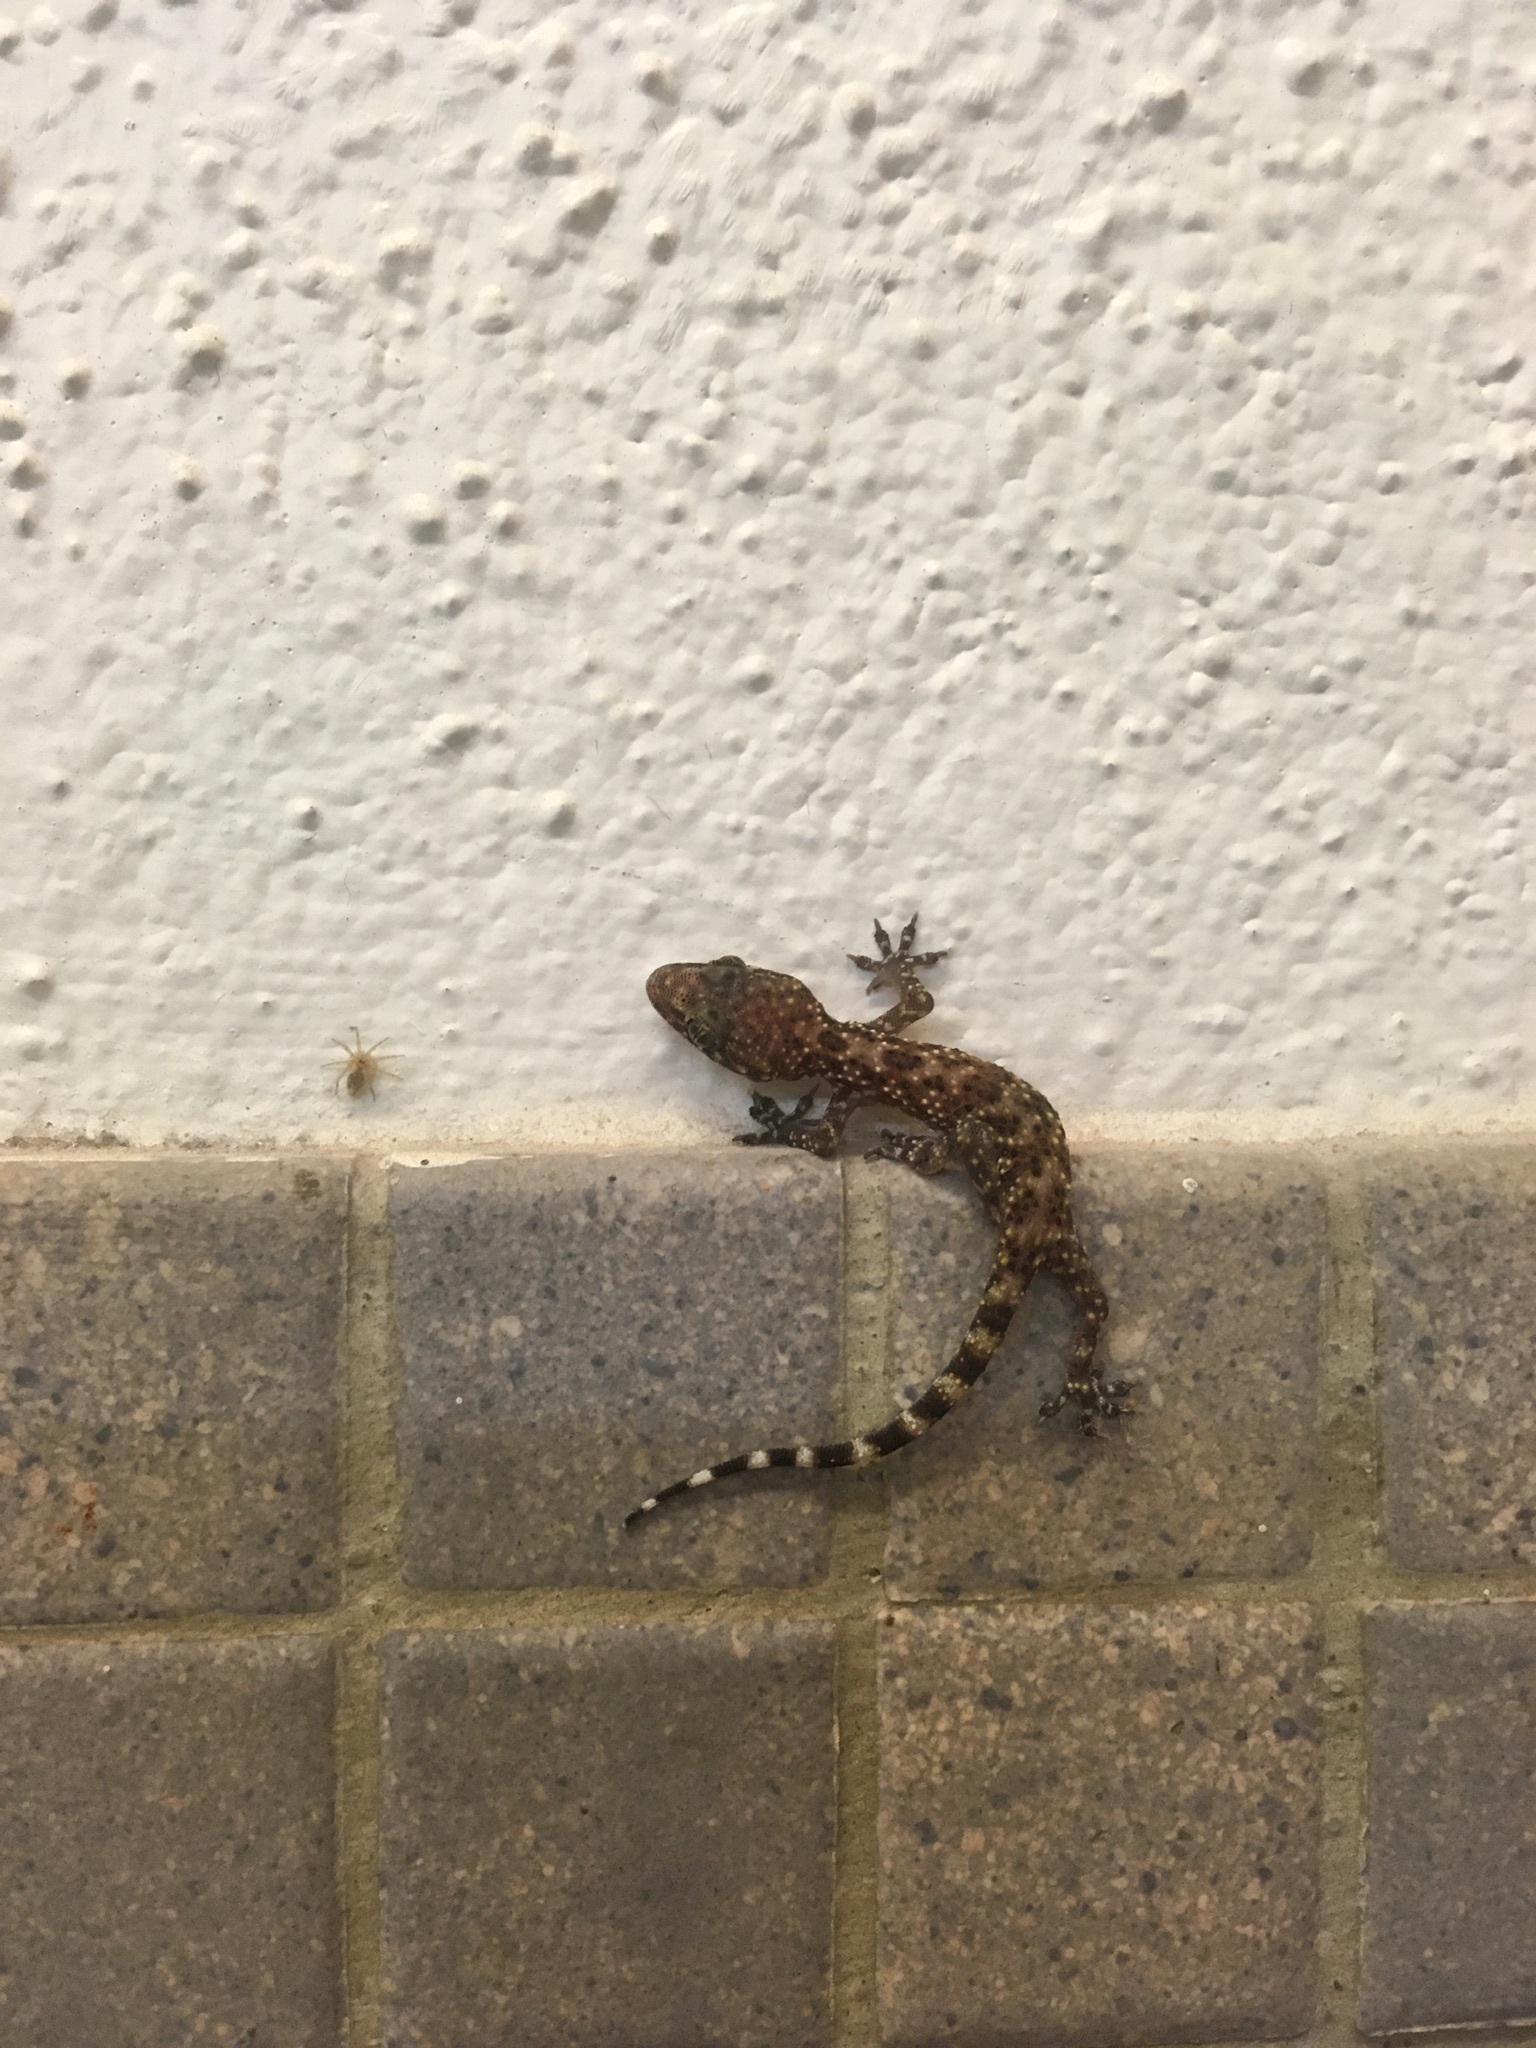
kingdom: Animalia
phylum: Chordata
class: Squamata
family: Gekkonidae
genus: Hemidactylus
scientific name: Hemidactylus turcicus
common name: Turkish gecko
